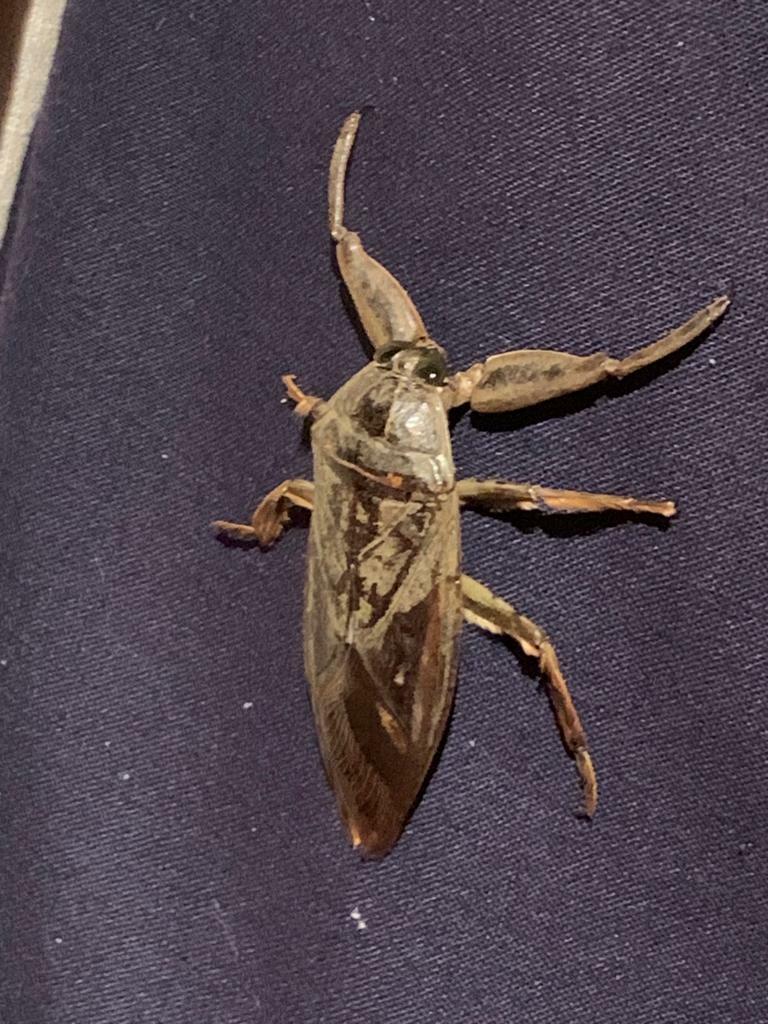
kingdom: Animalia
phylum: Arthropoda
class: Insecta
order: Hemiptera
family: Belostomatidae
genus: Lethocerus
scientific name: Lethocerus cordofanus
